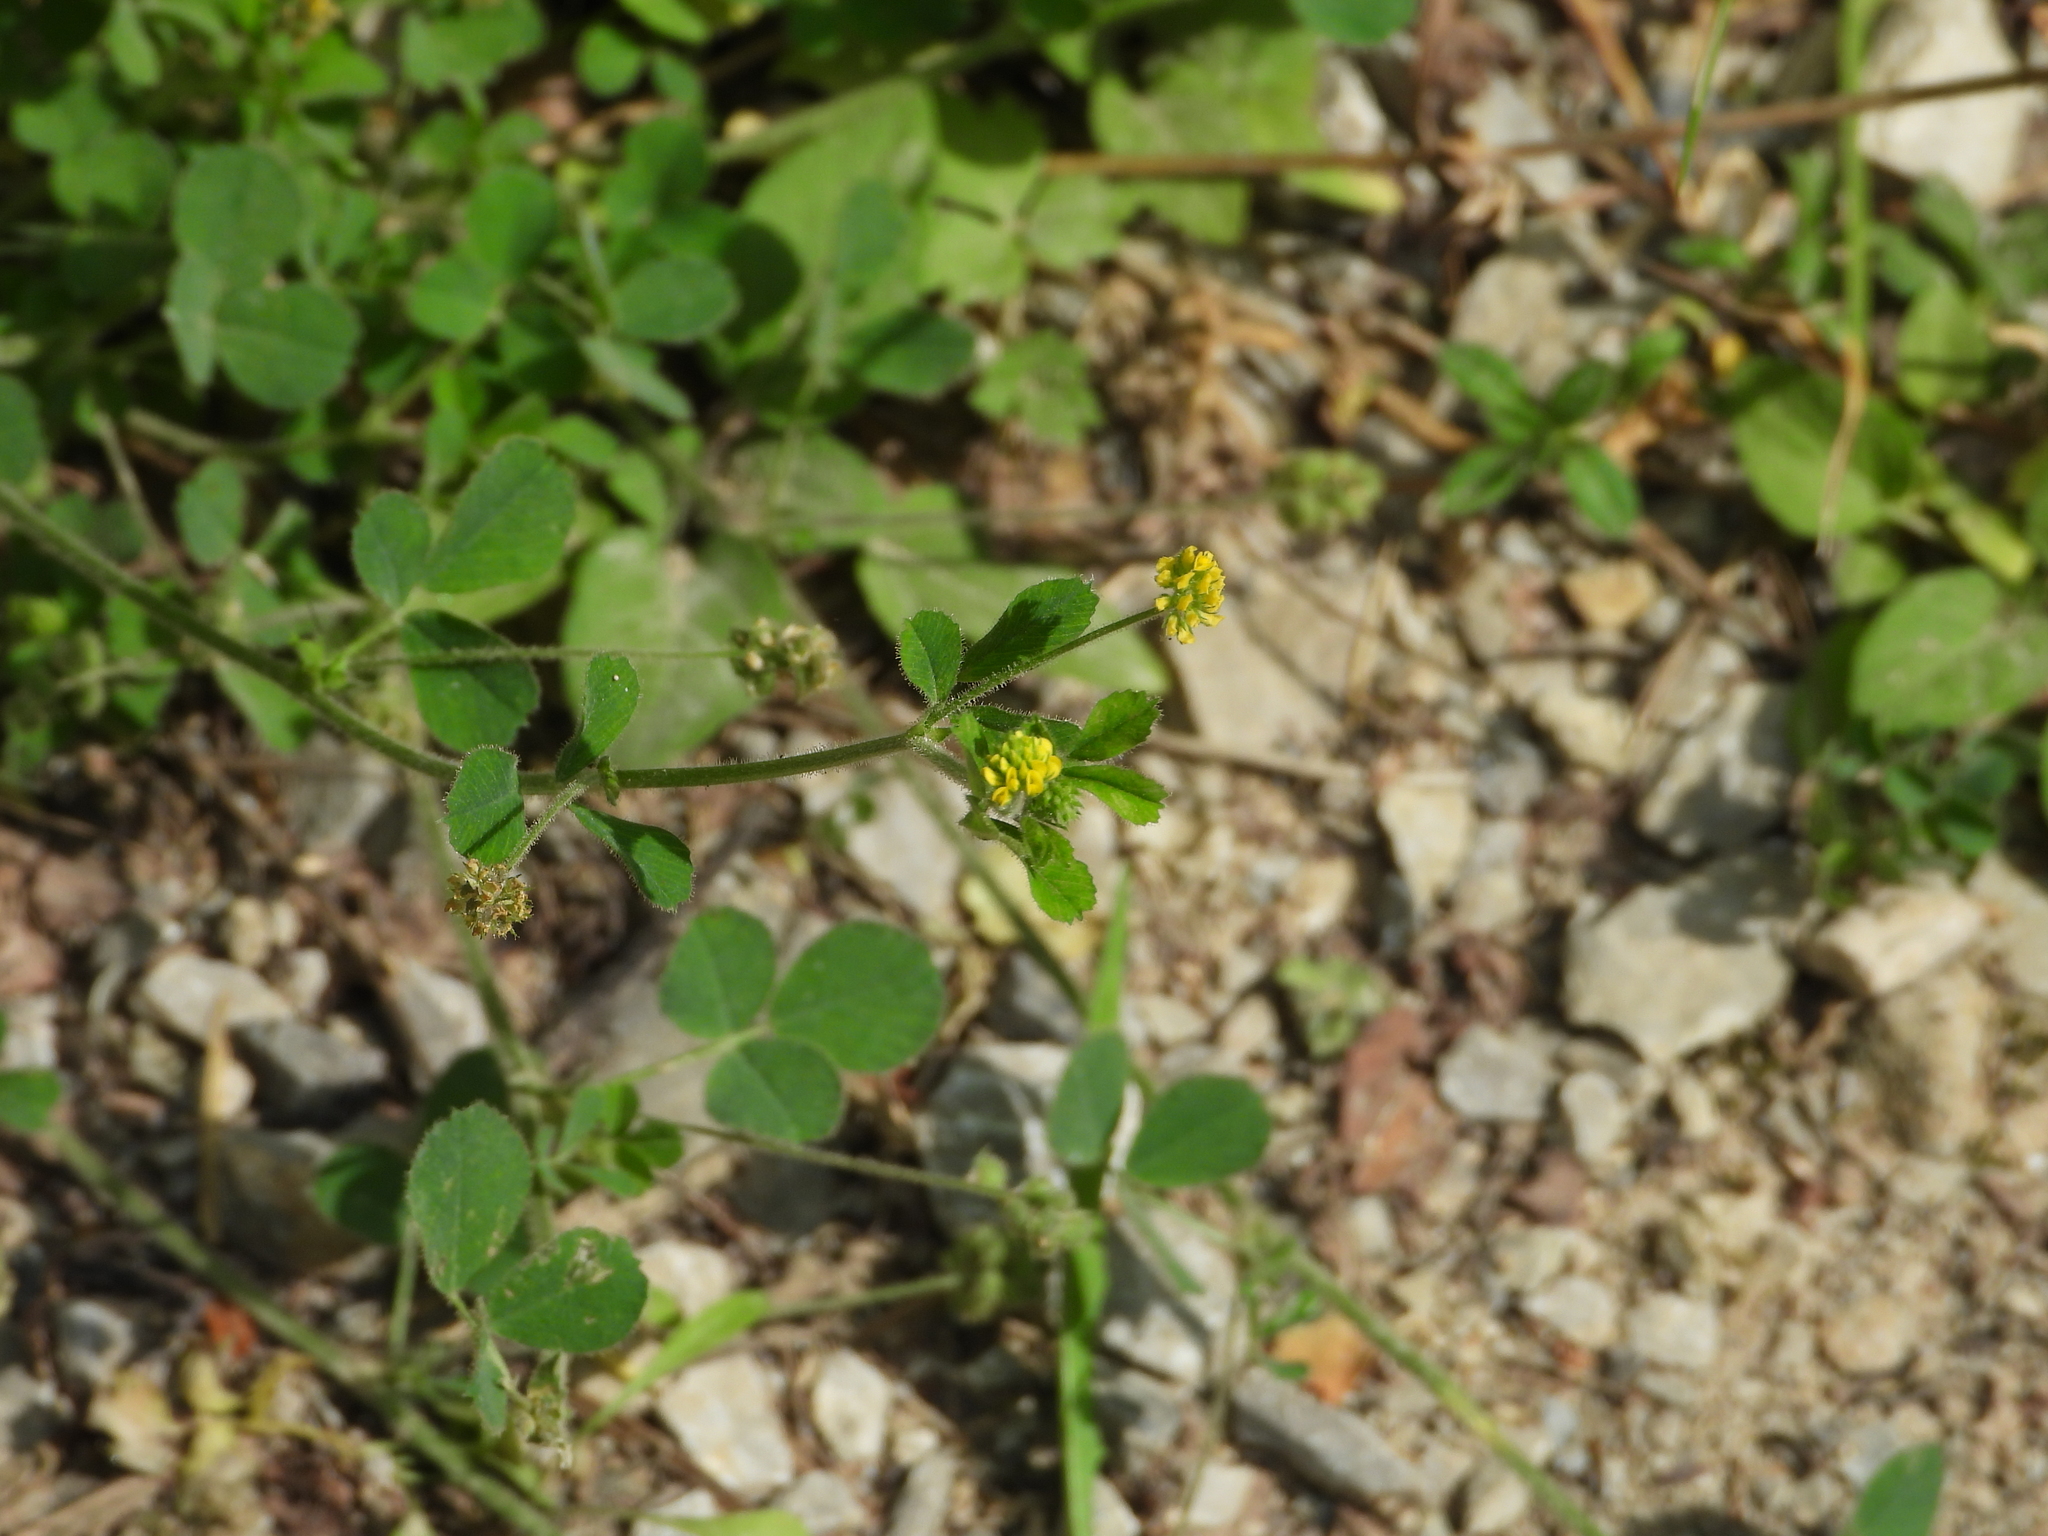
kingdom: Plantae
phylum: Tracheophyta
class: Magnoliopsida
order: Fabales
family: Fabaceae
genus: Medicago
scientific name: Medicago lupulina
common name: Black medick
